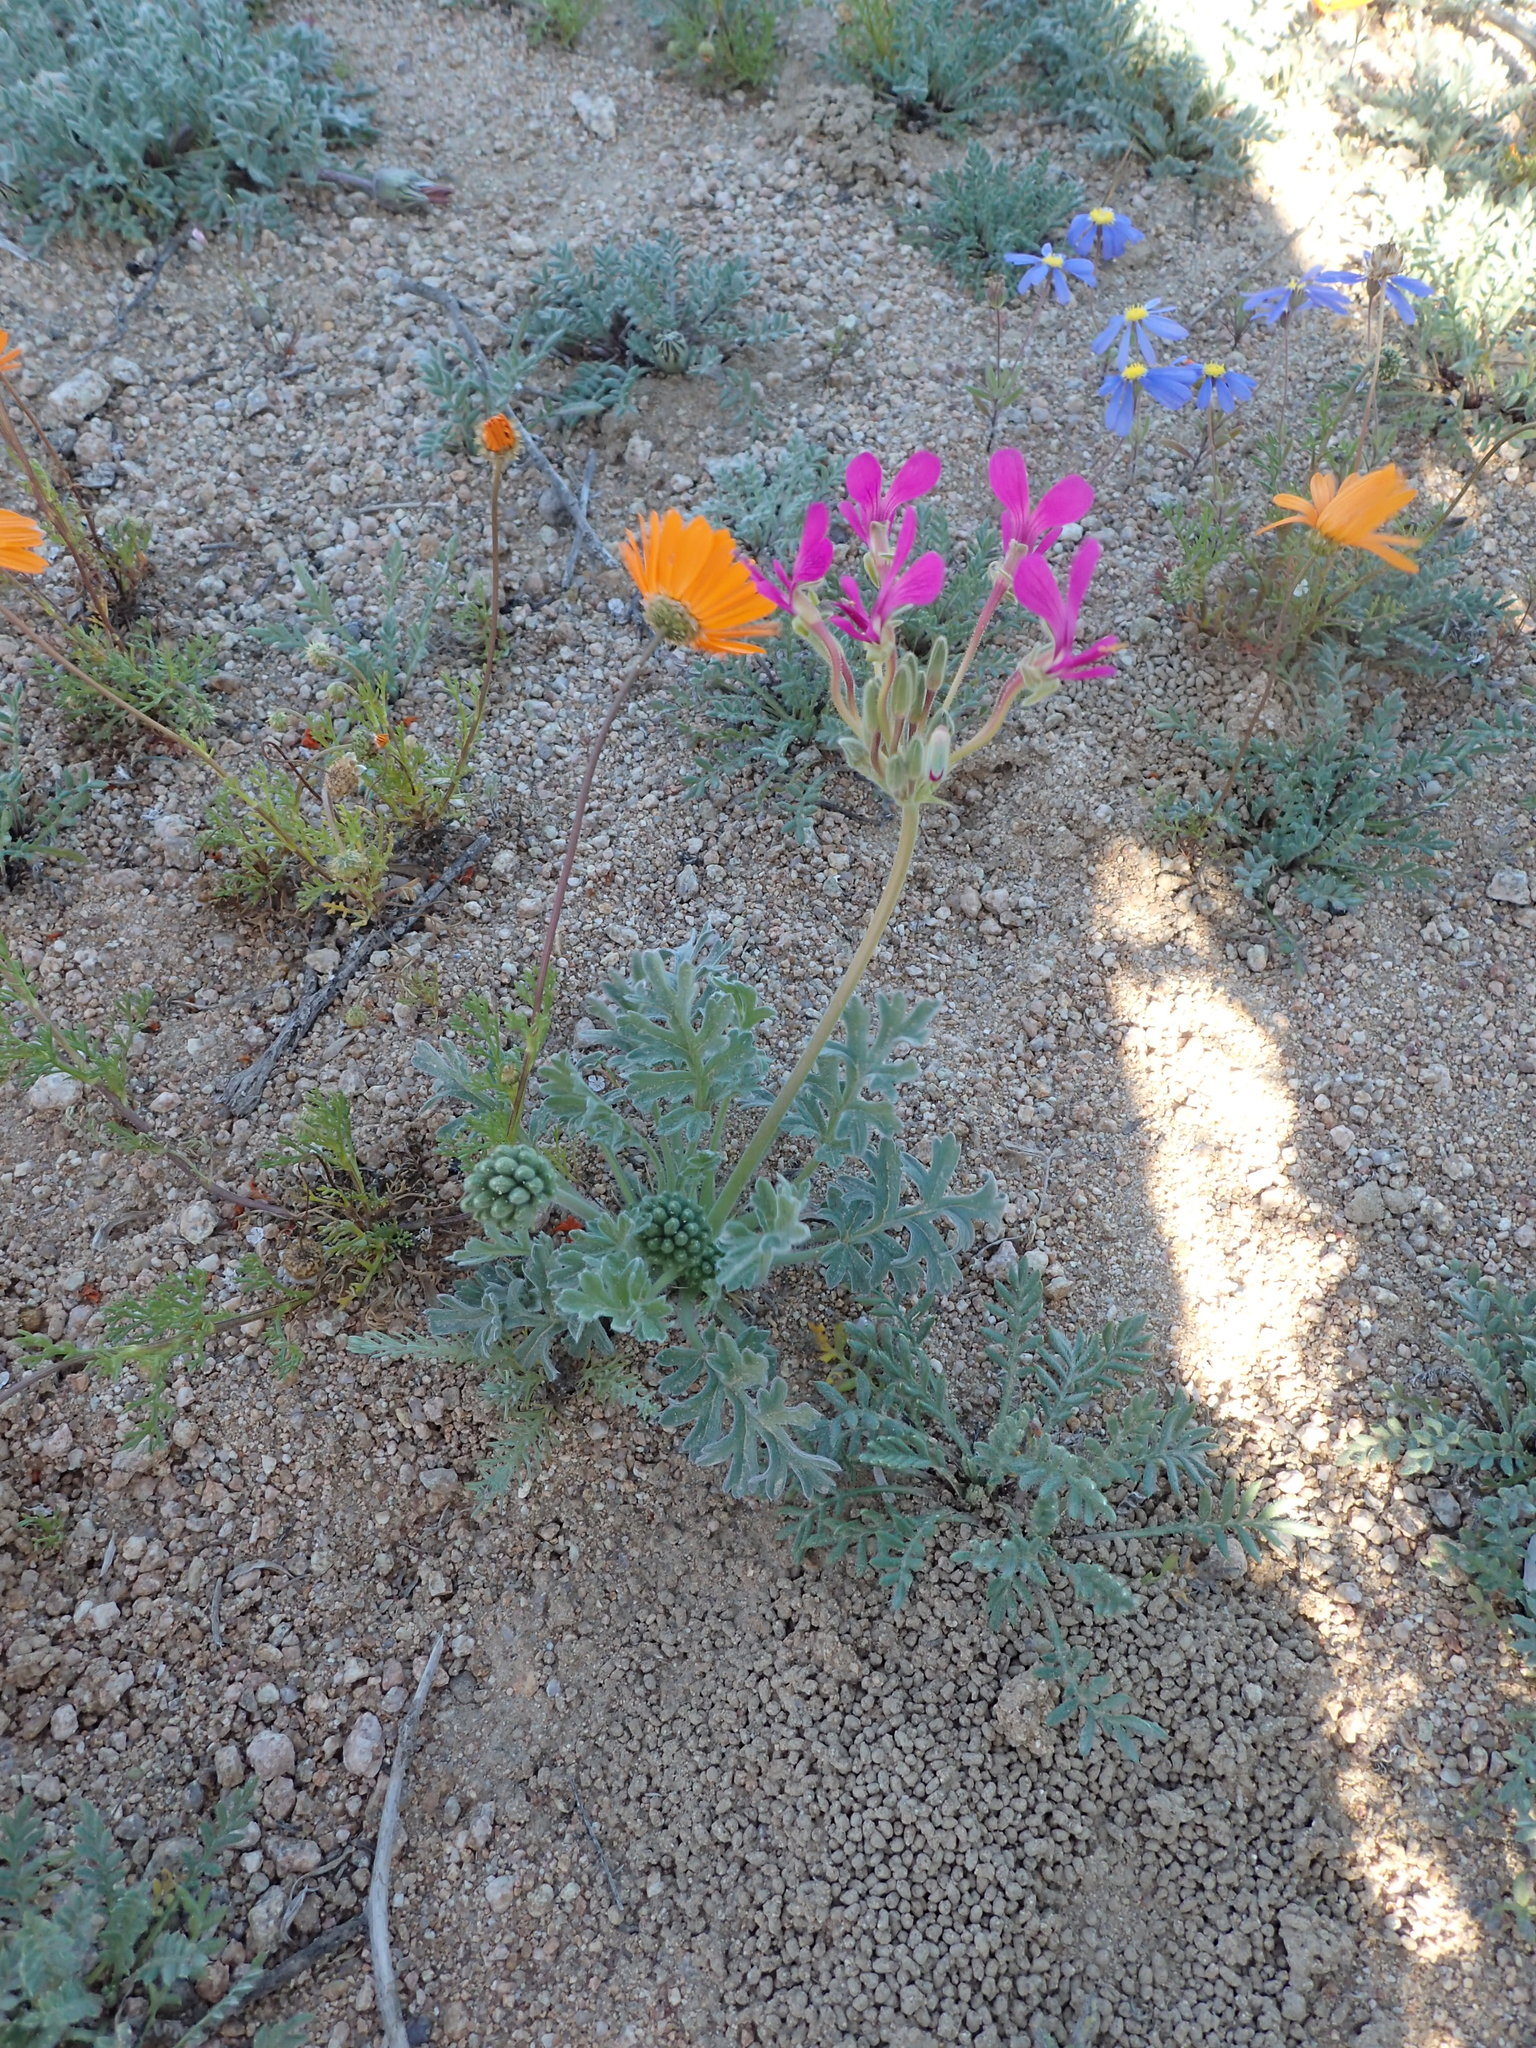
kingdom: Plantae
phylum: Tracheophyta
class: Magnoliopsida
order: Geraniales
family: Geraniaceae
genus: Pelargonium
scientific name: Pelargonium incrassatum
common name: Namaqualand beauty
